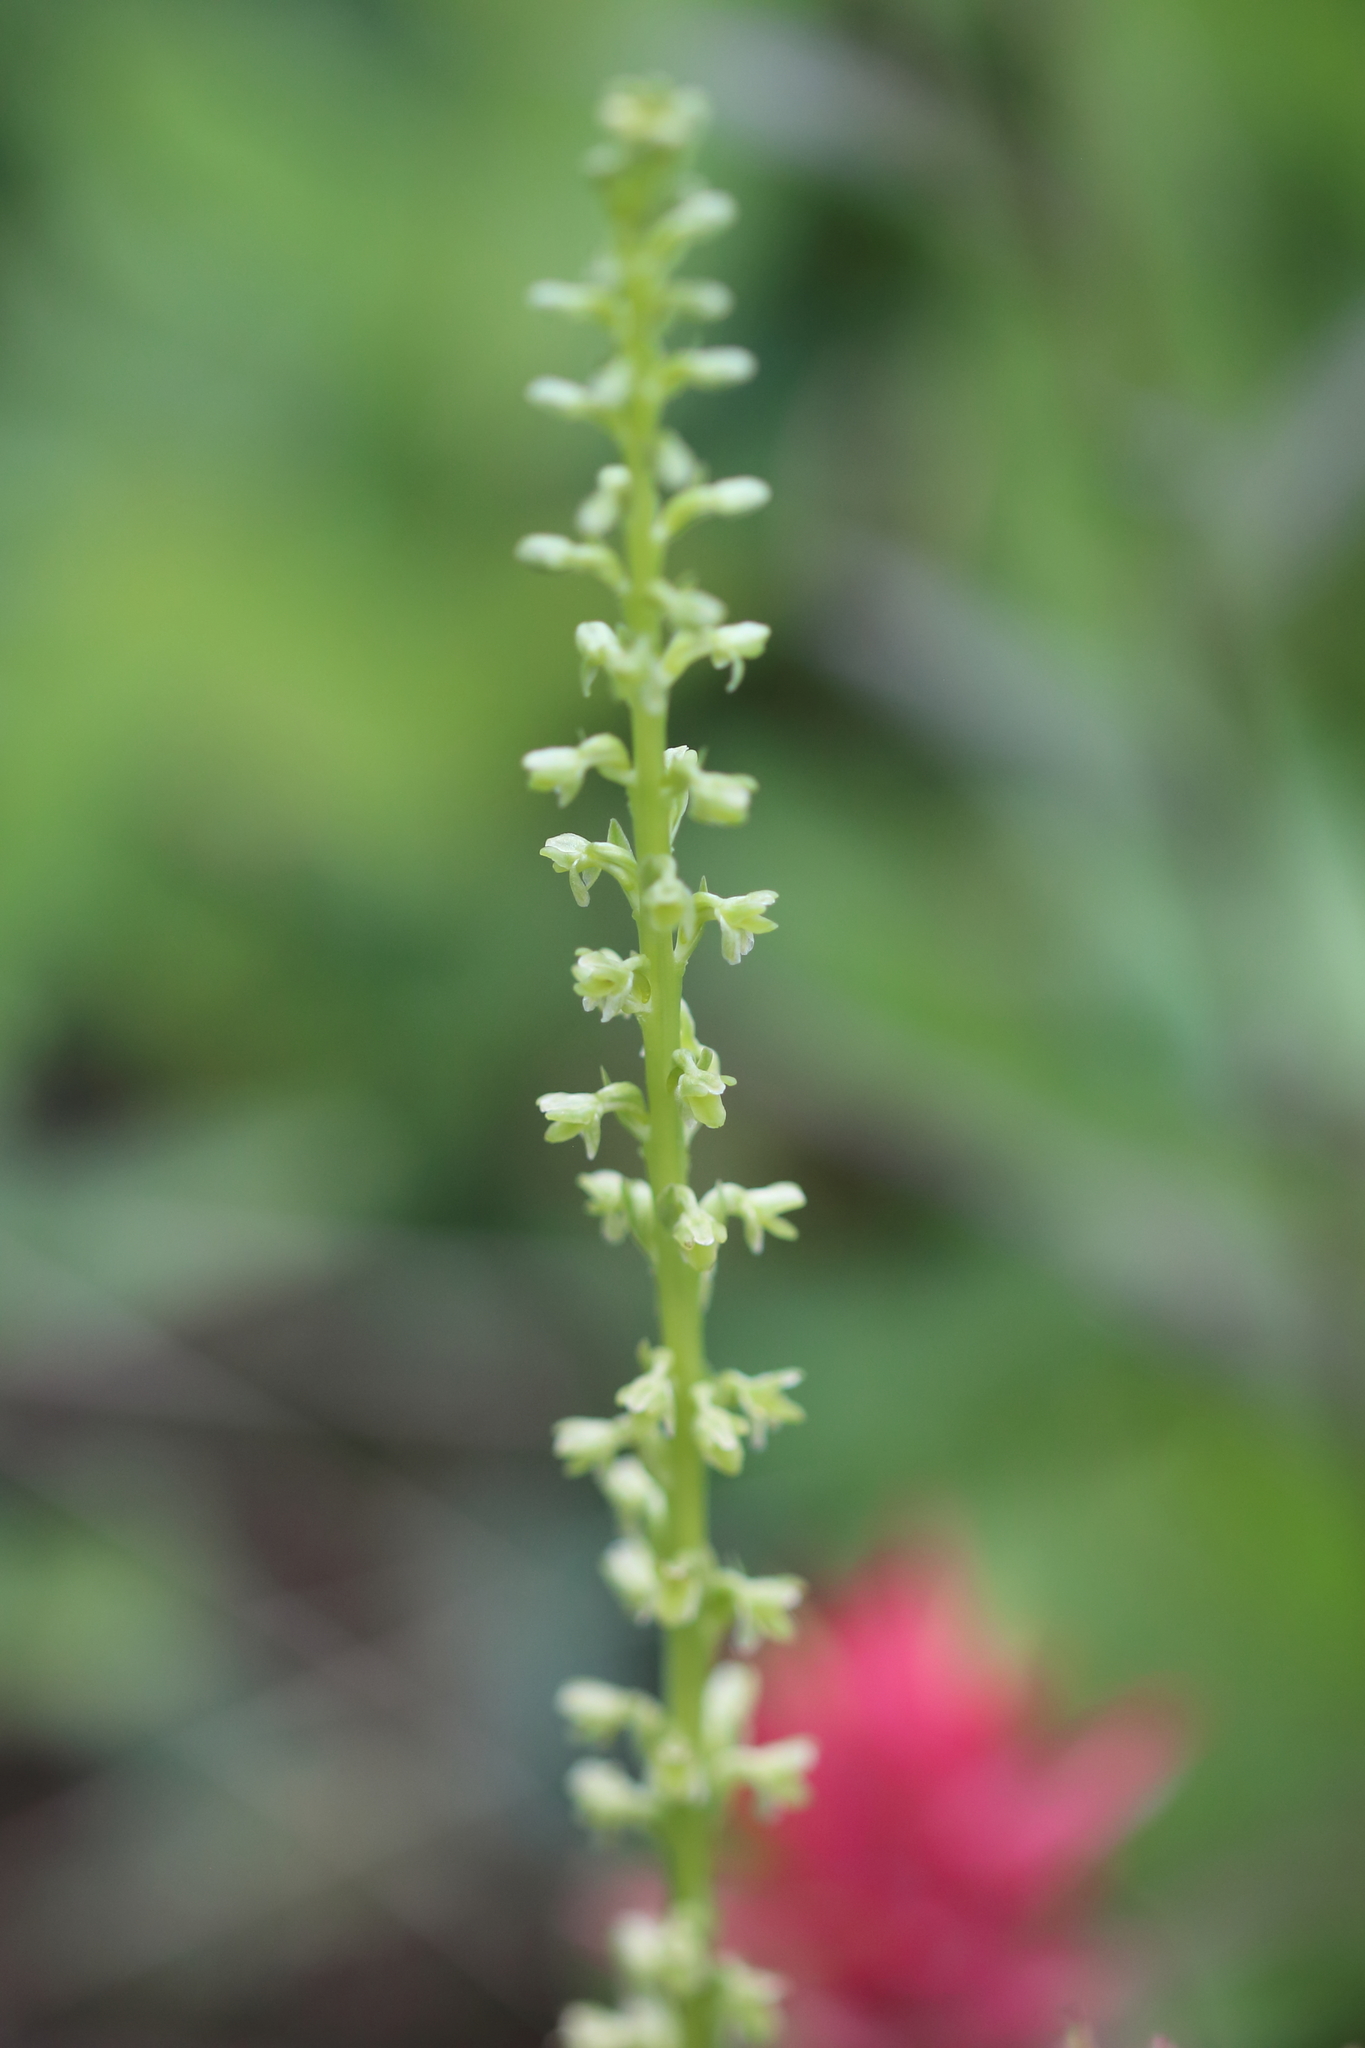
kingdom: Plantae
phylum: Tracheophyta
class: Liliopsida
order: Asparagales
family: Orchidaceae
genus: Platanthera
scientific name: Platanthera unalascensis
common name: Alaska bog orchid
